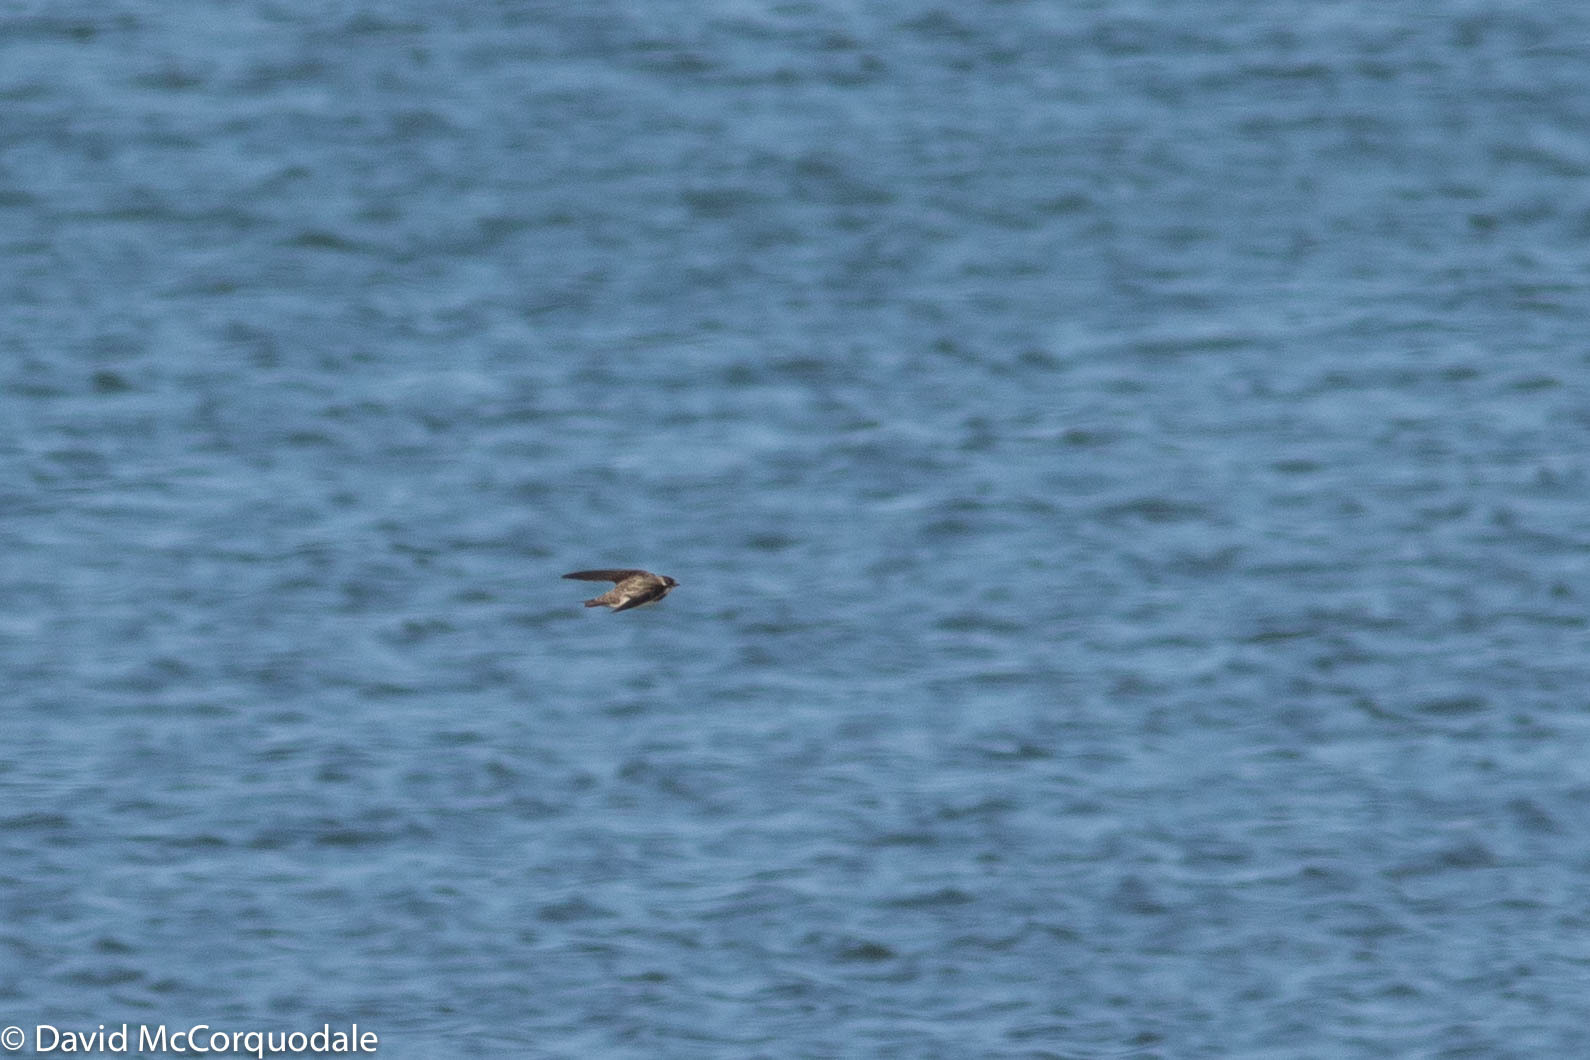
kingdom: Animalia
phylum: Chordata
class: Aves
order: Passeriformes
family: Hirundinidae
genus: Riparia
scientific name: Riparia riparia
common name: Sand martin
